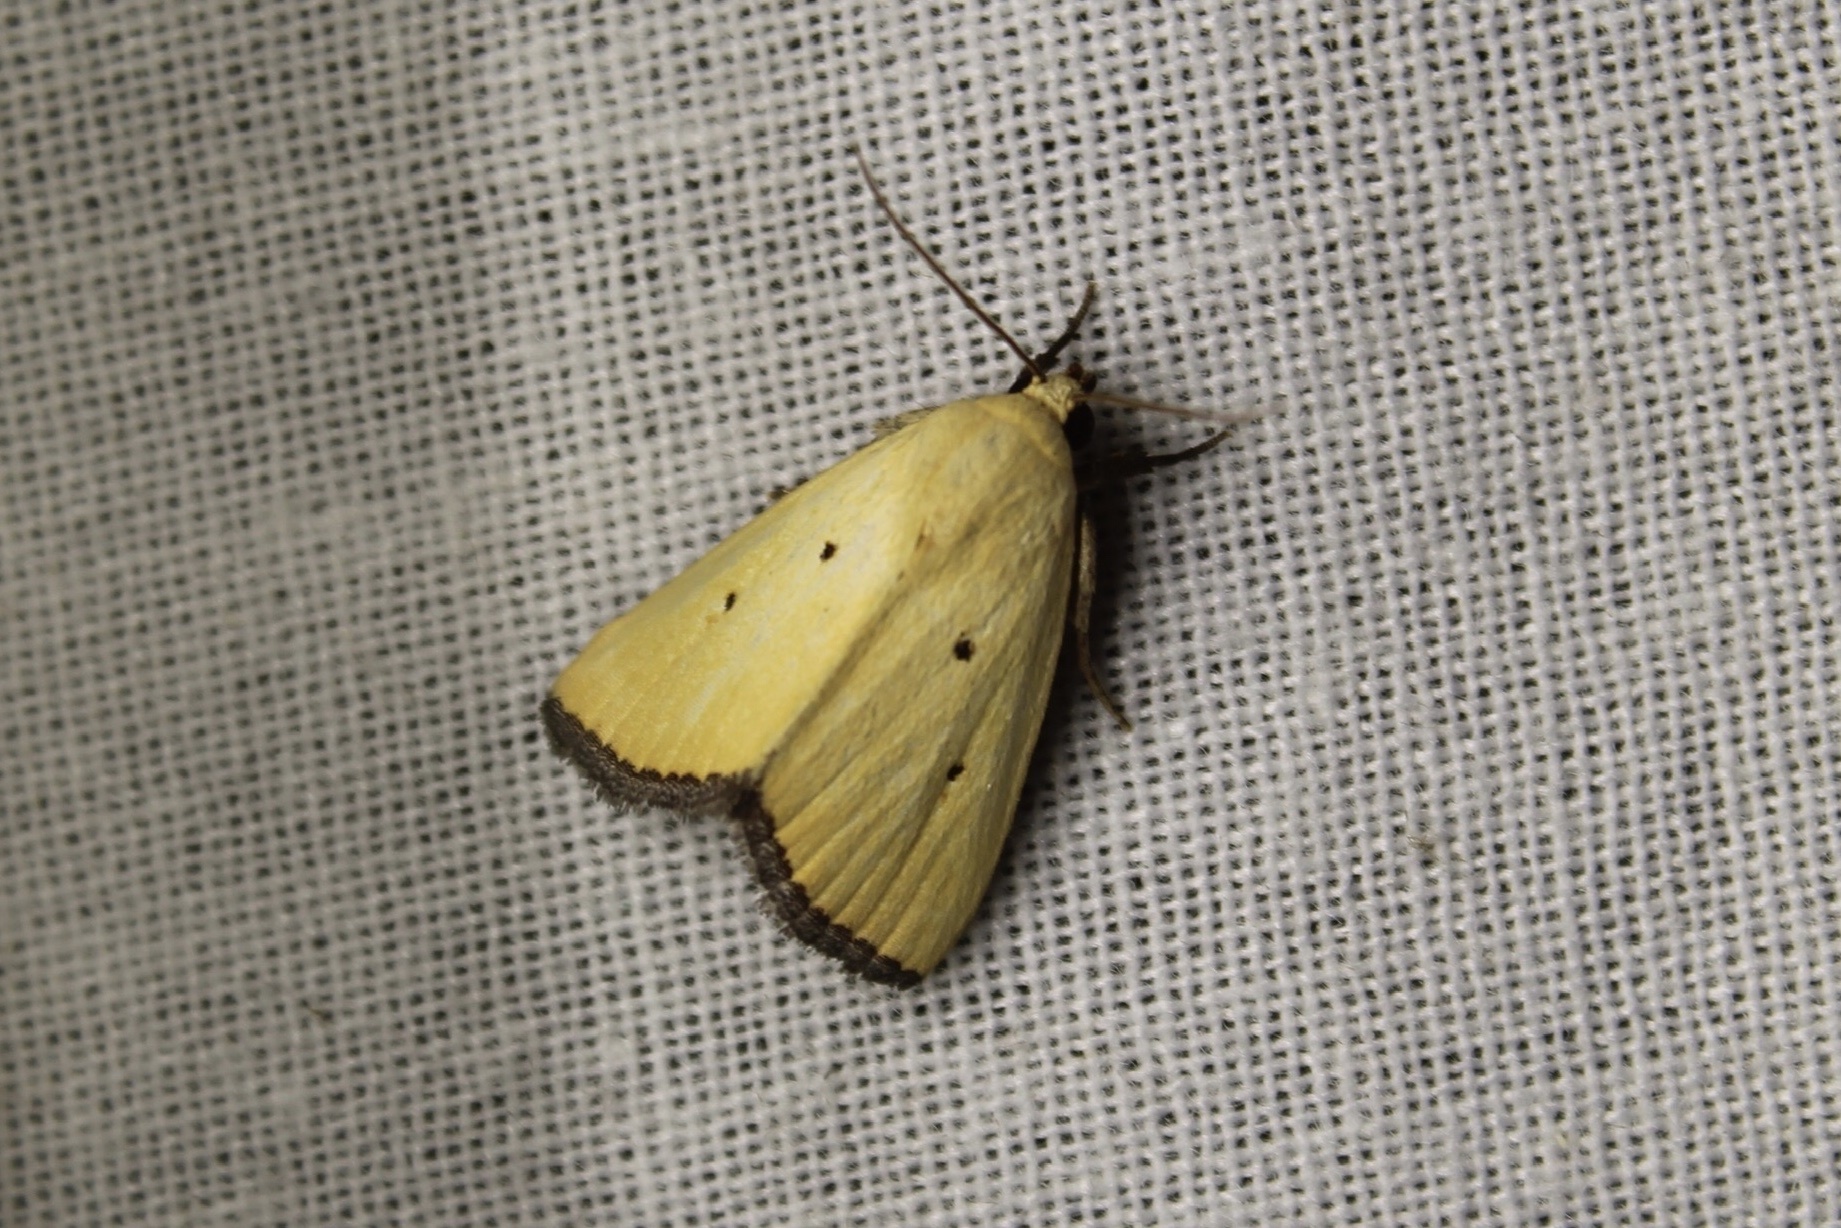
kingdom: Animalia
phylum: Arthropoda
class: Insecta
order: Lepidoptera
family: Noctuidae
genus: Marimatha
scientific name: Marimatha nigrofimbria
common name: Black-bordered lemon moth
